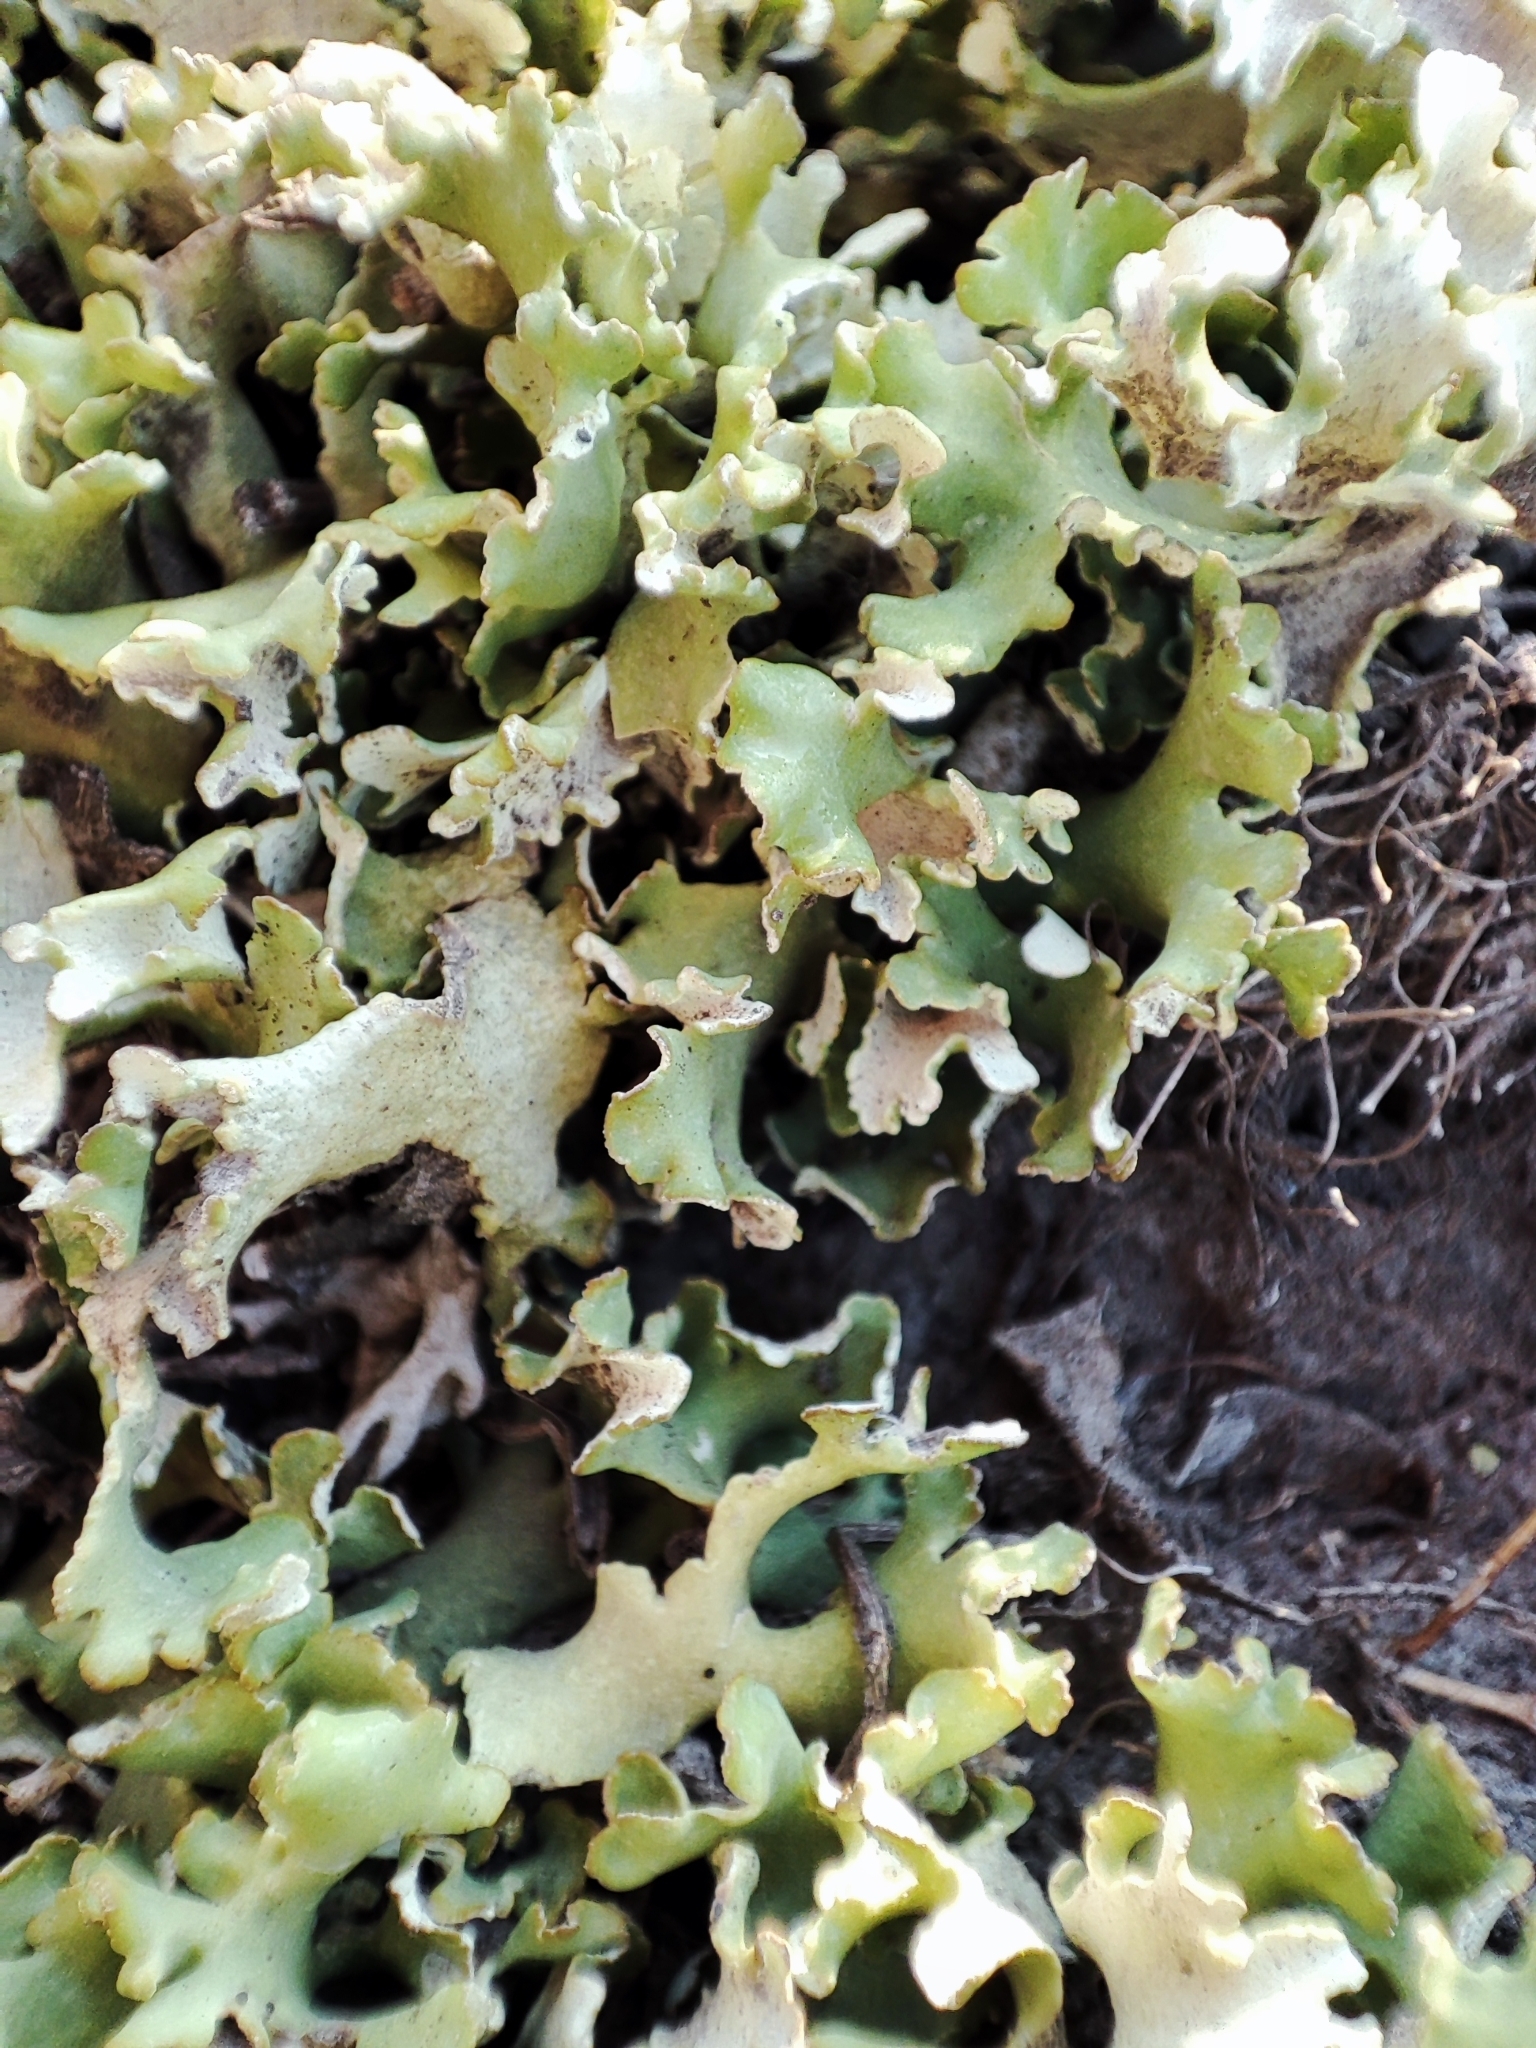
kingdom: Fungi
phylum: Ascomycota
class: Lecanoromycetes
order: Lecanorales
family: Cladoniaceae
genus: Cladonia
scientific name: Cladonia foliacea
